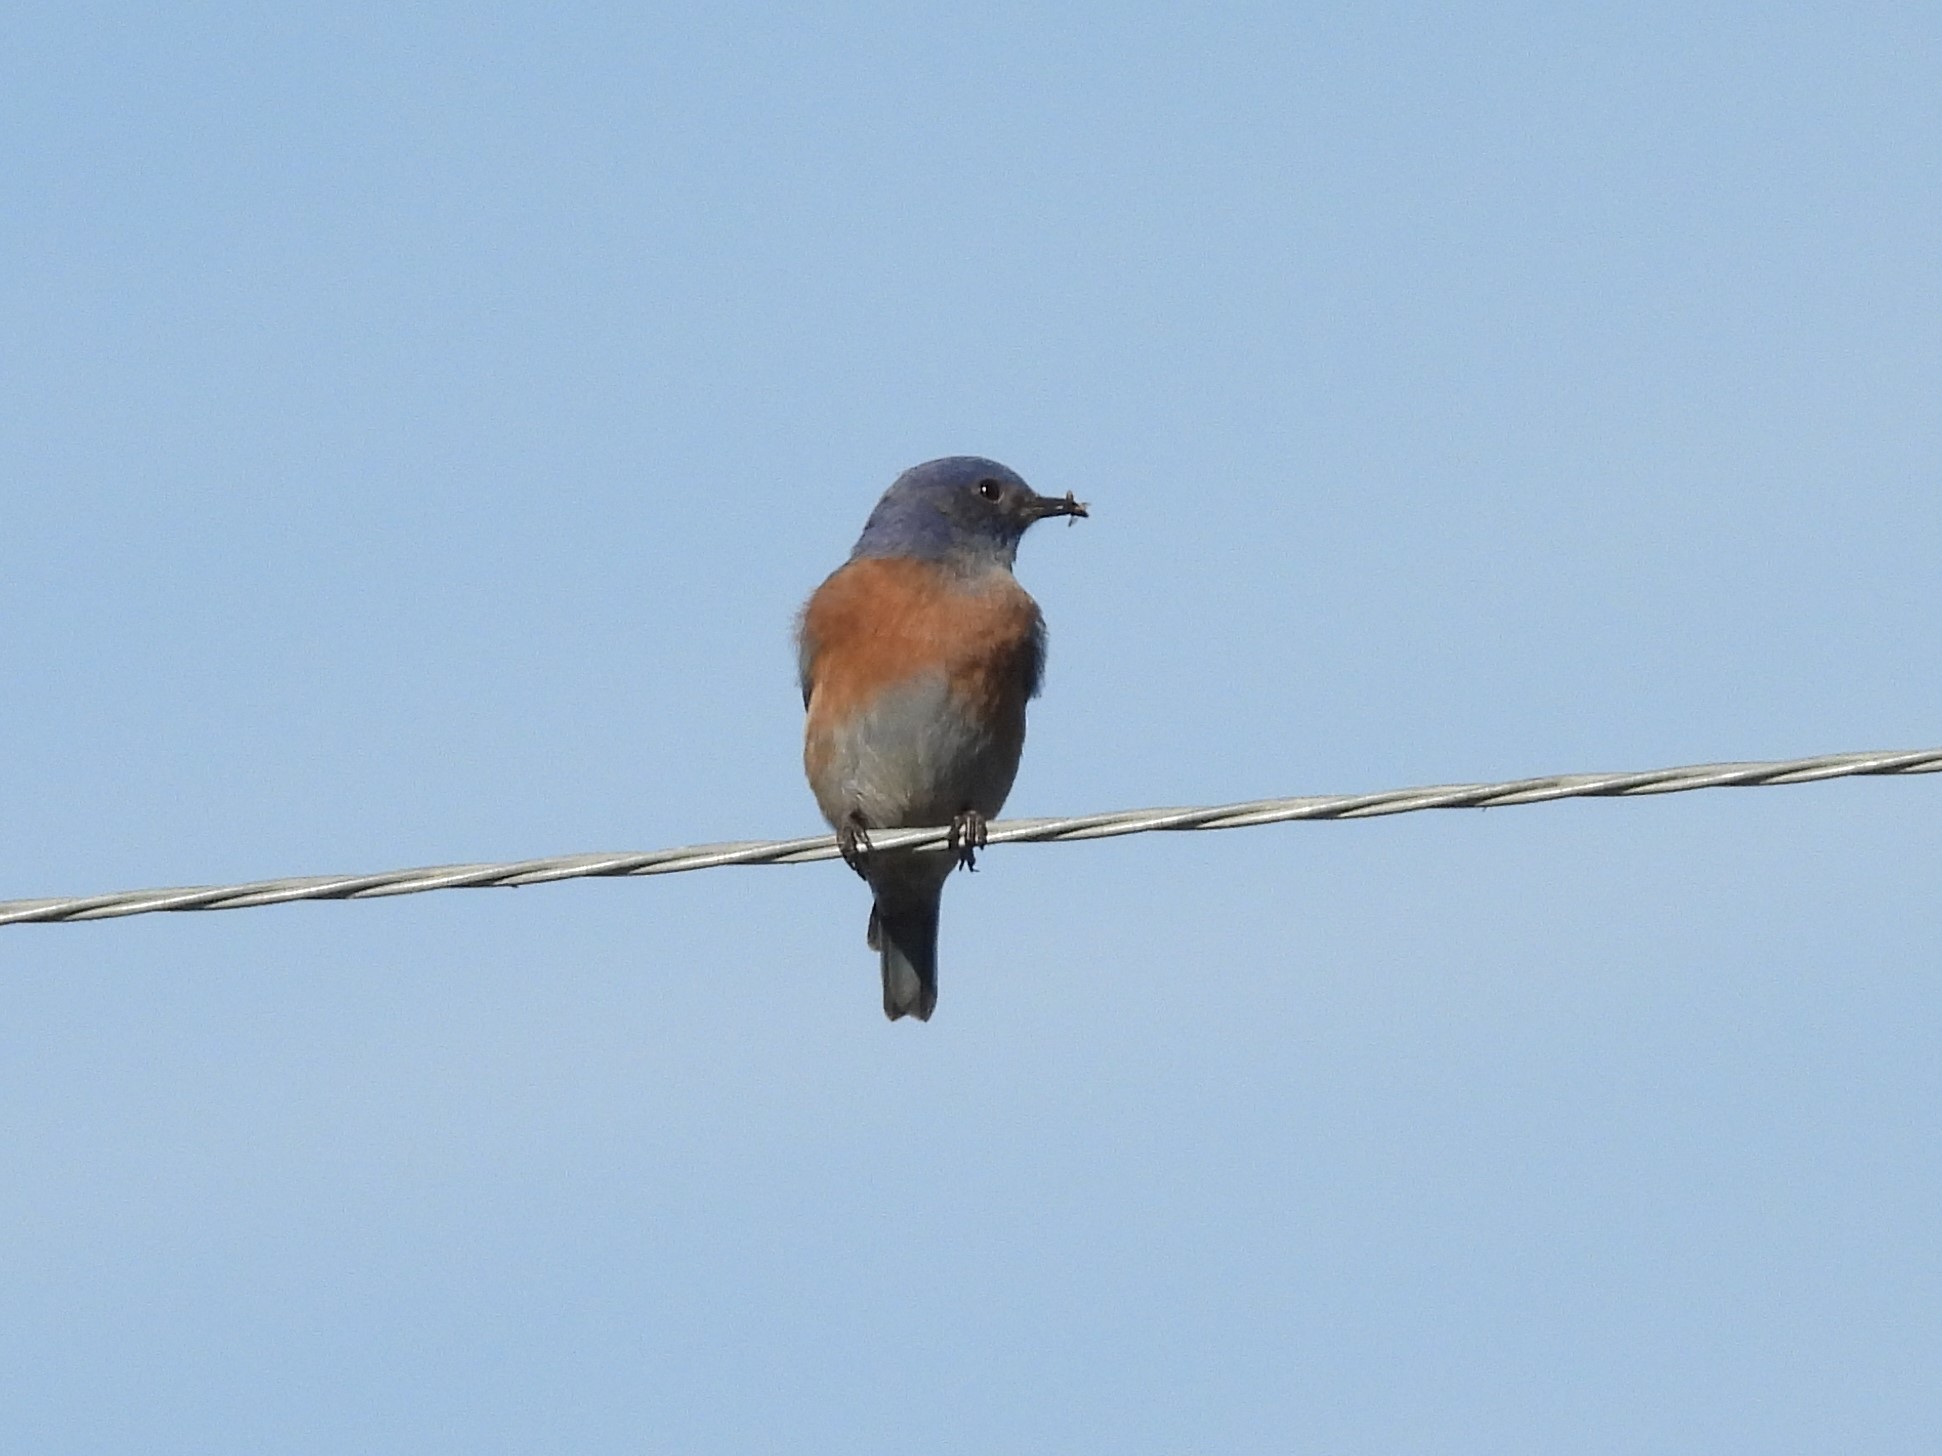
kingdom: Animalia
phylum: Chordata
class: Aves
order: Passeriformes
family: Turdidae
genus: Sialia
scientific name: Sialia mexicana
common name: Western bluebird
